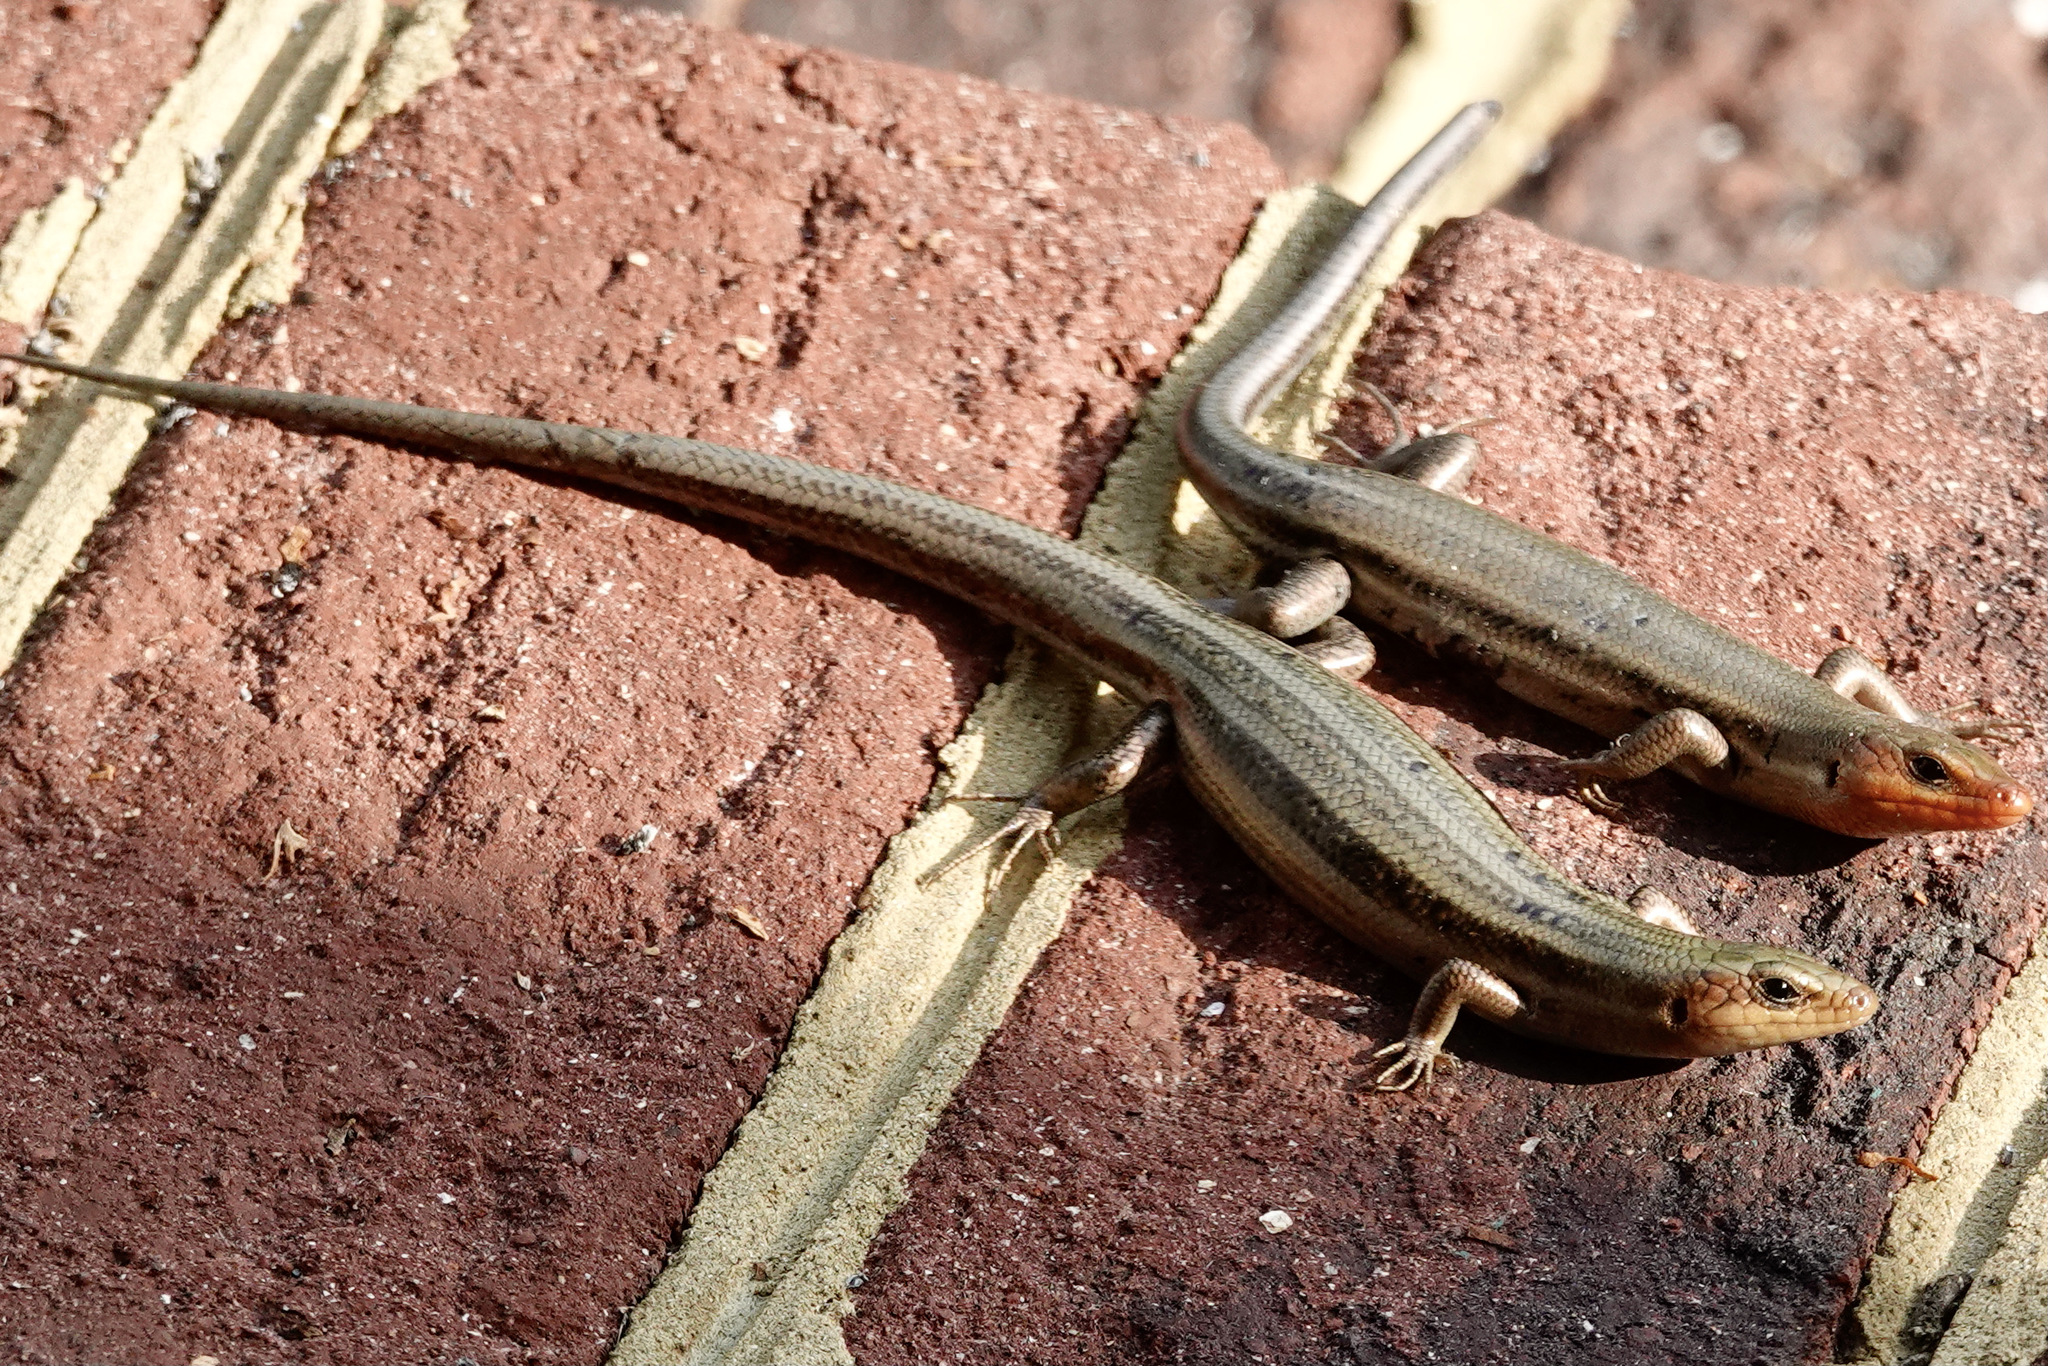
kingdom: Animalia
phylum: Chordata
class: Squamata
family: Scincidae
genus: Plestiodon
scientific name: Plestiodon fasciatus
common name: Five-lined skink
